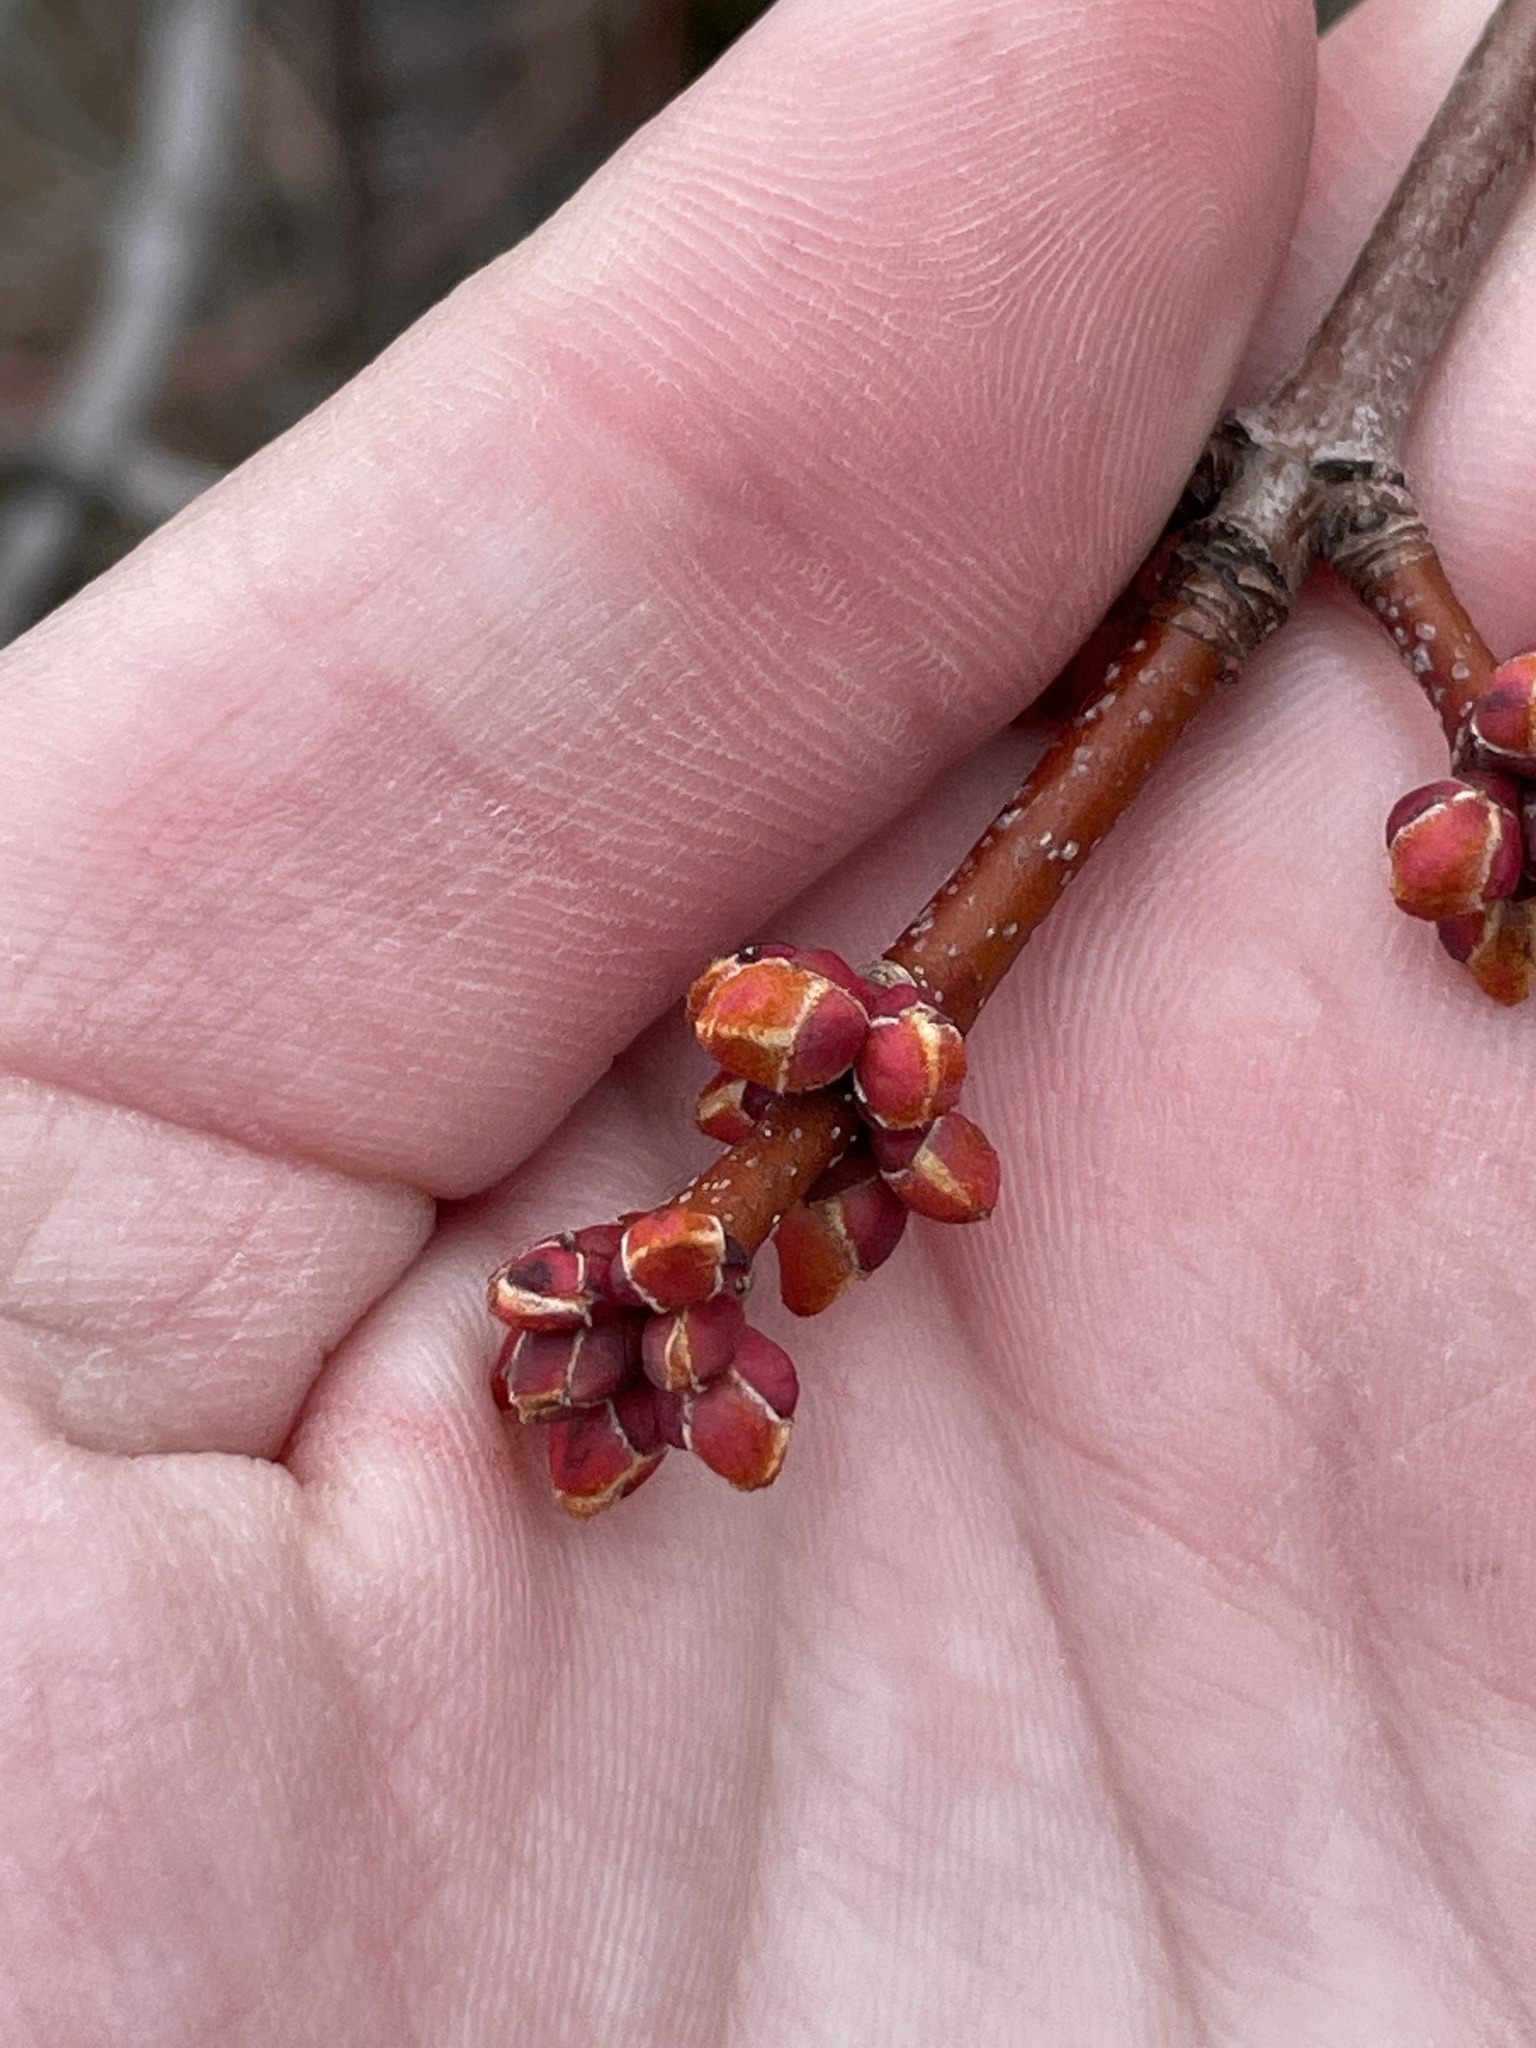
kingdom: Plantae
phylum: Tracheophyta
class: Magnoliopsida
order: Sapindales
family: Sapindaceae
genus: Acer
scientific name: Acer rubrum
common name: Red maple
